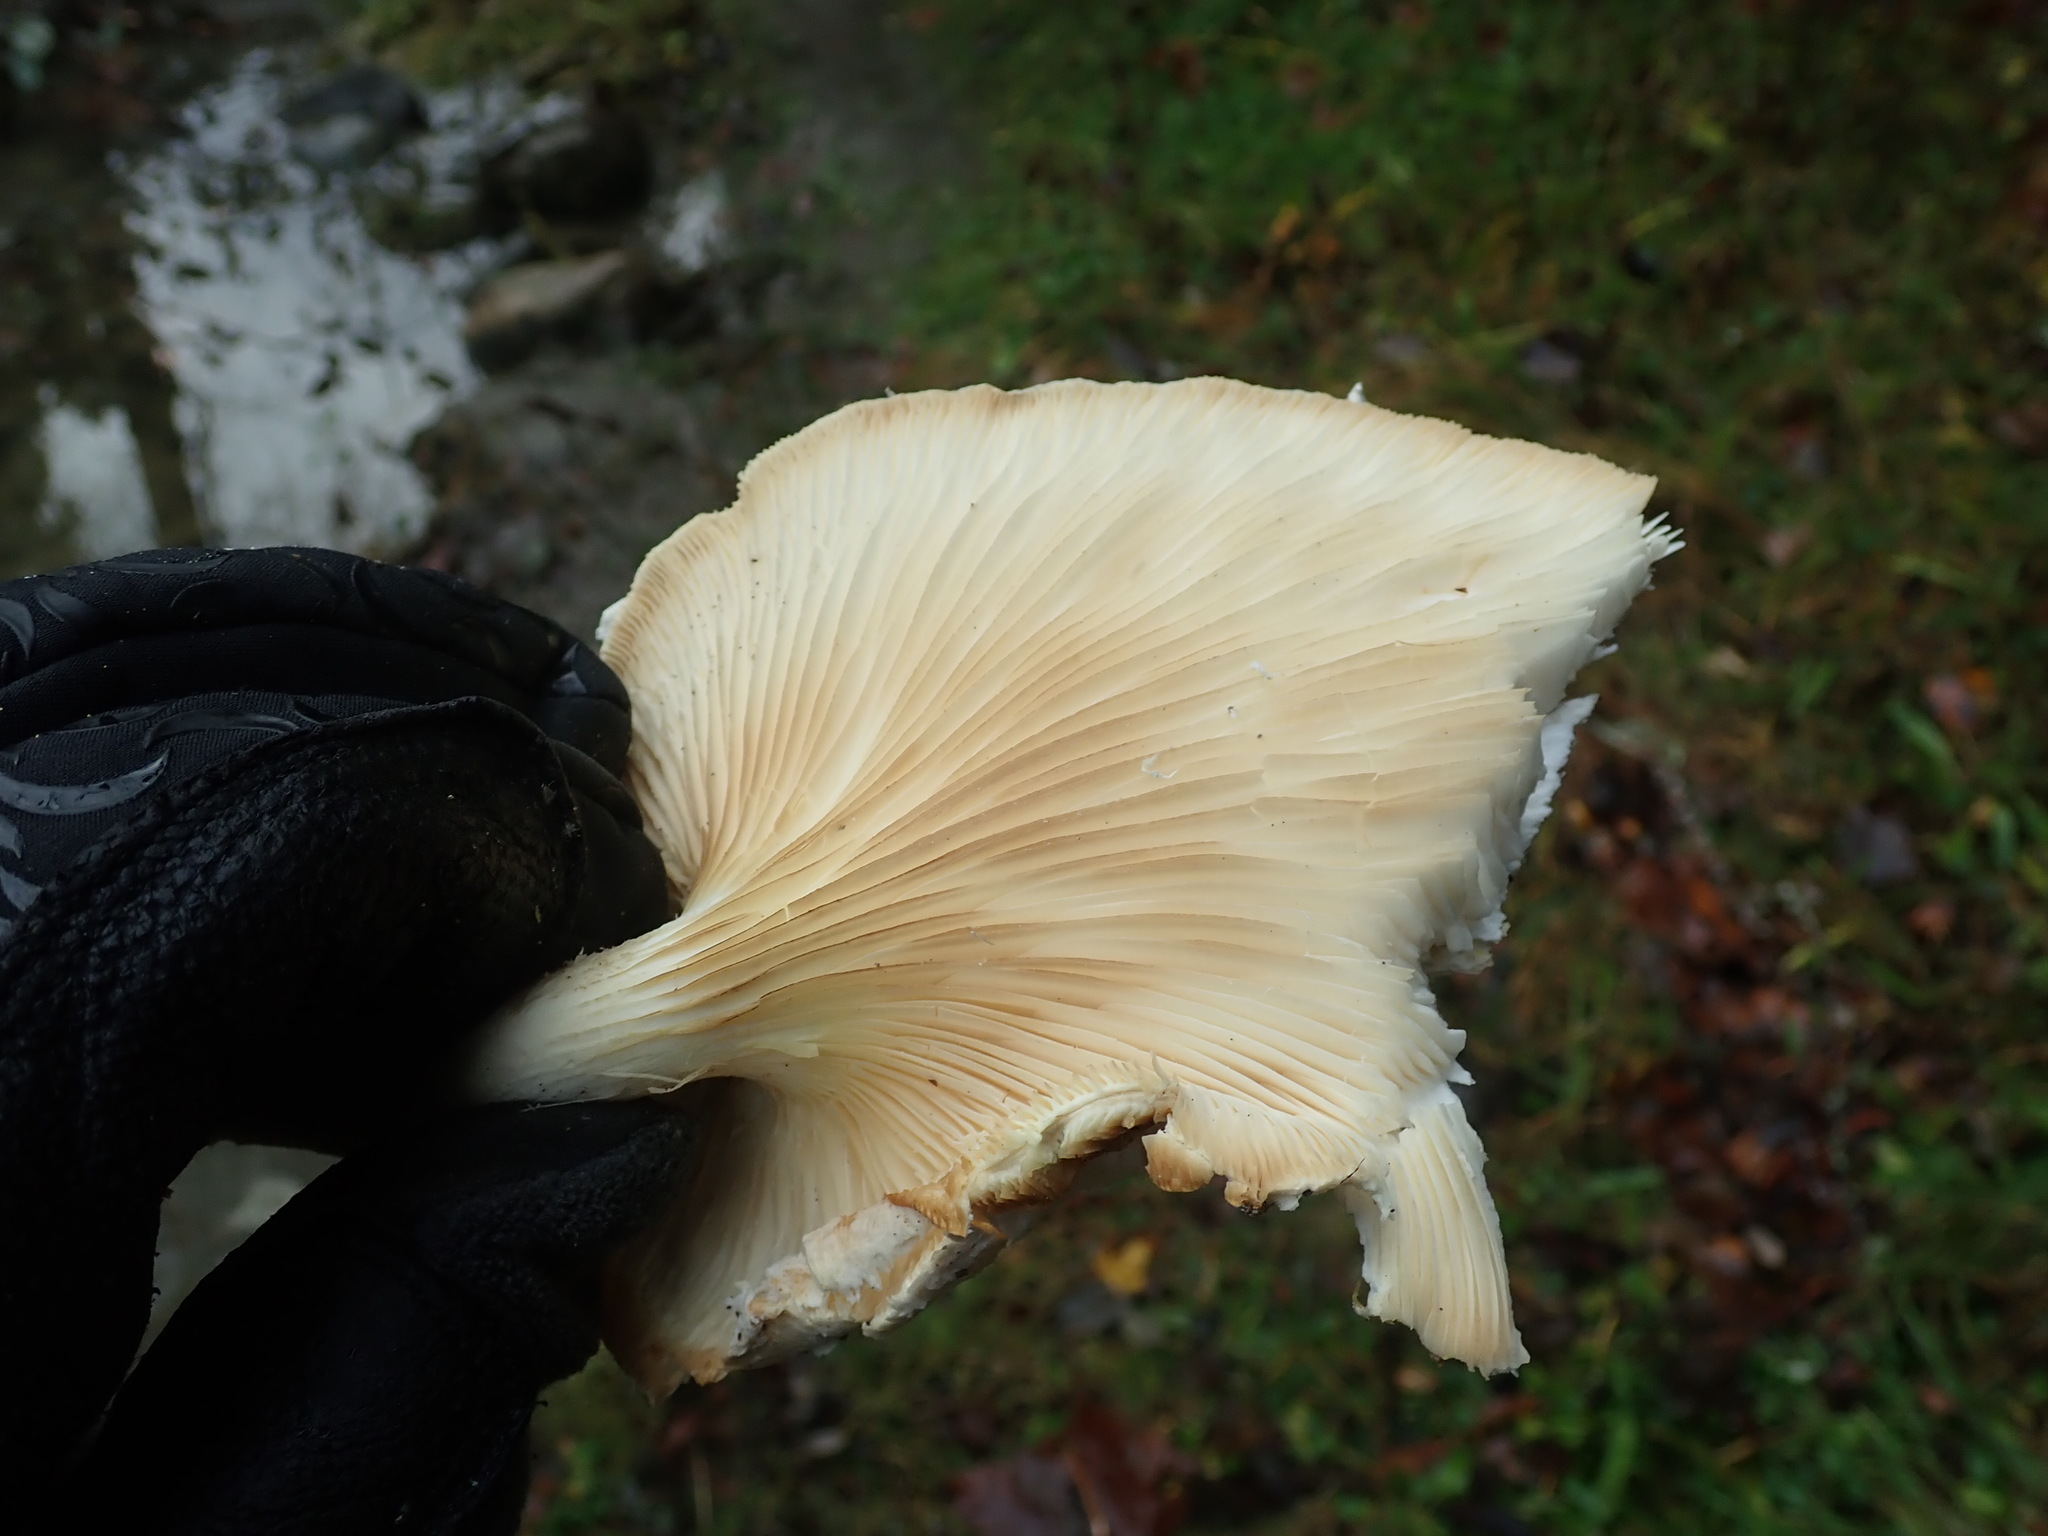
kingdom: Fungi
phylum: Basidiomycota
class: Agaricomycetes
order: Agaricales
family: Pleurotaceae
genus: Pleurotus
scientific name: Pleurotus dryinus
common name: Veiled oyster
